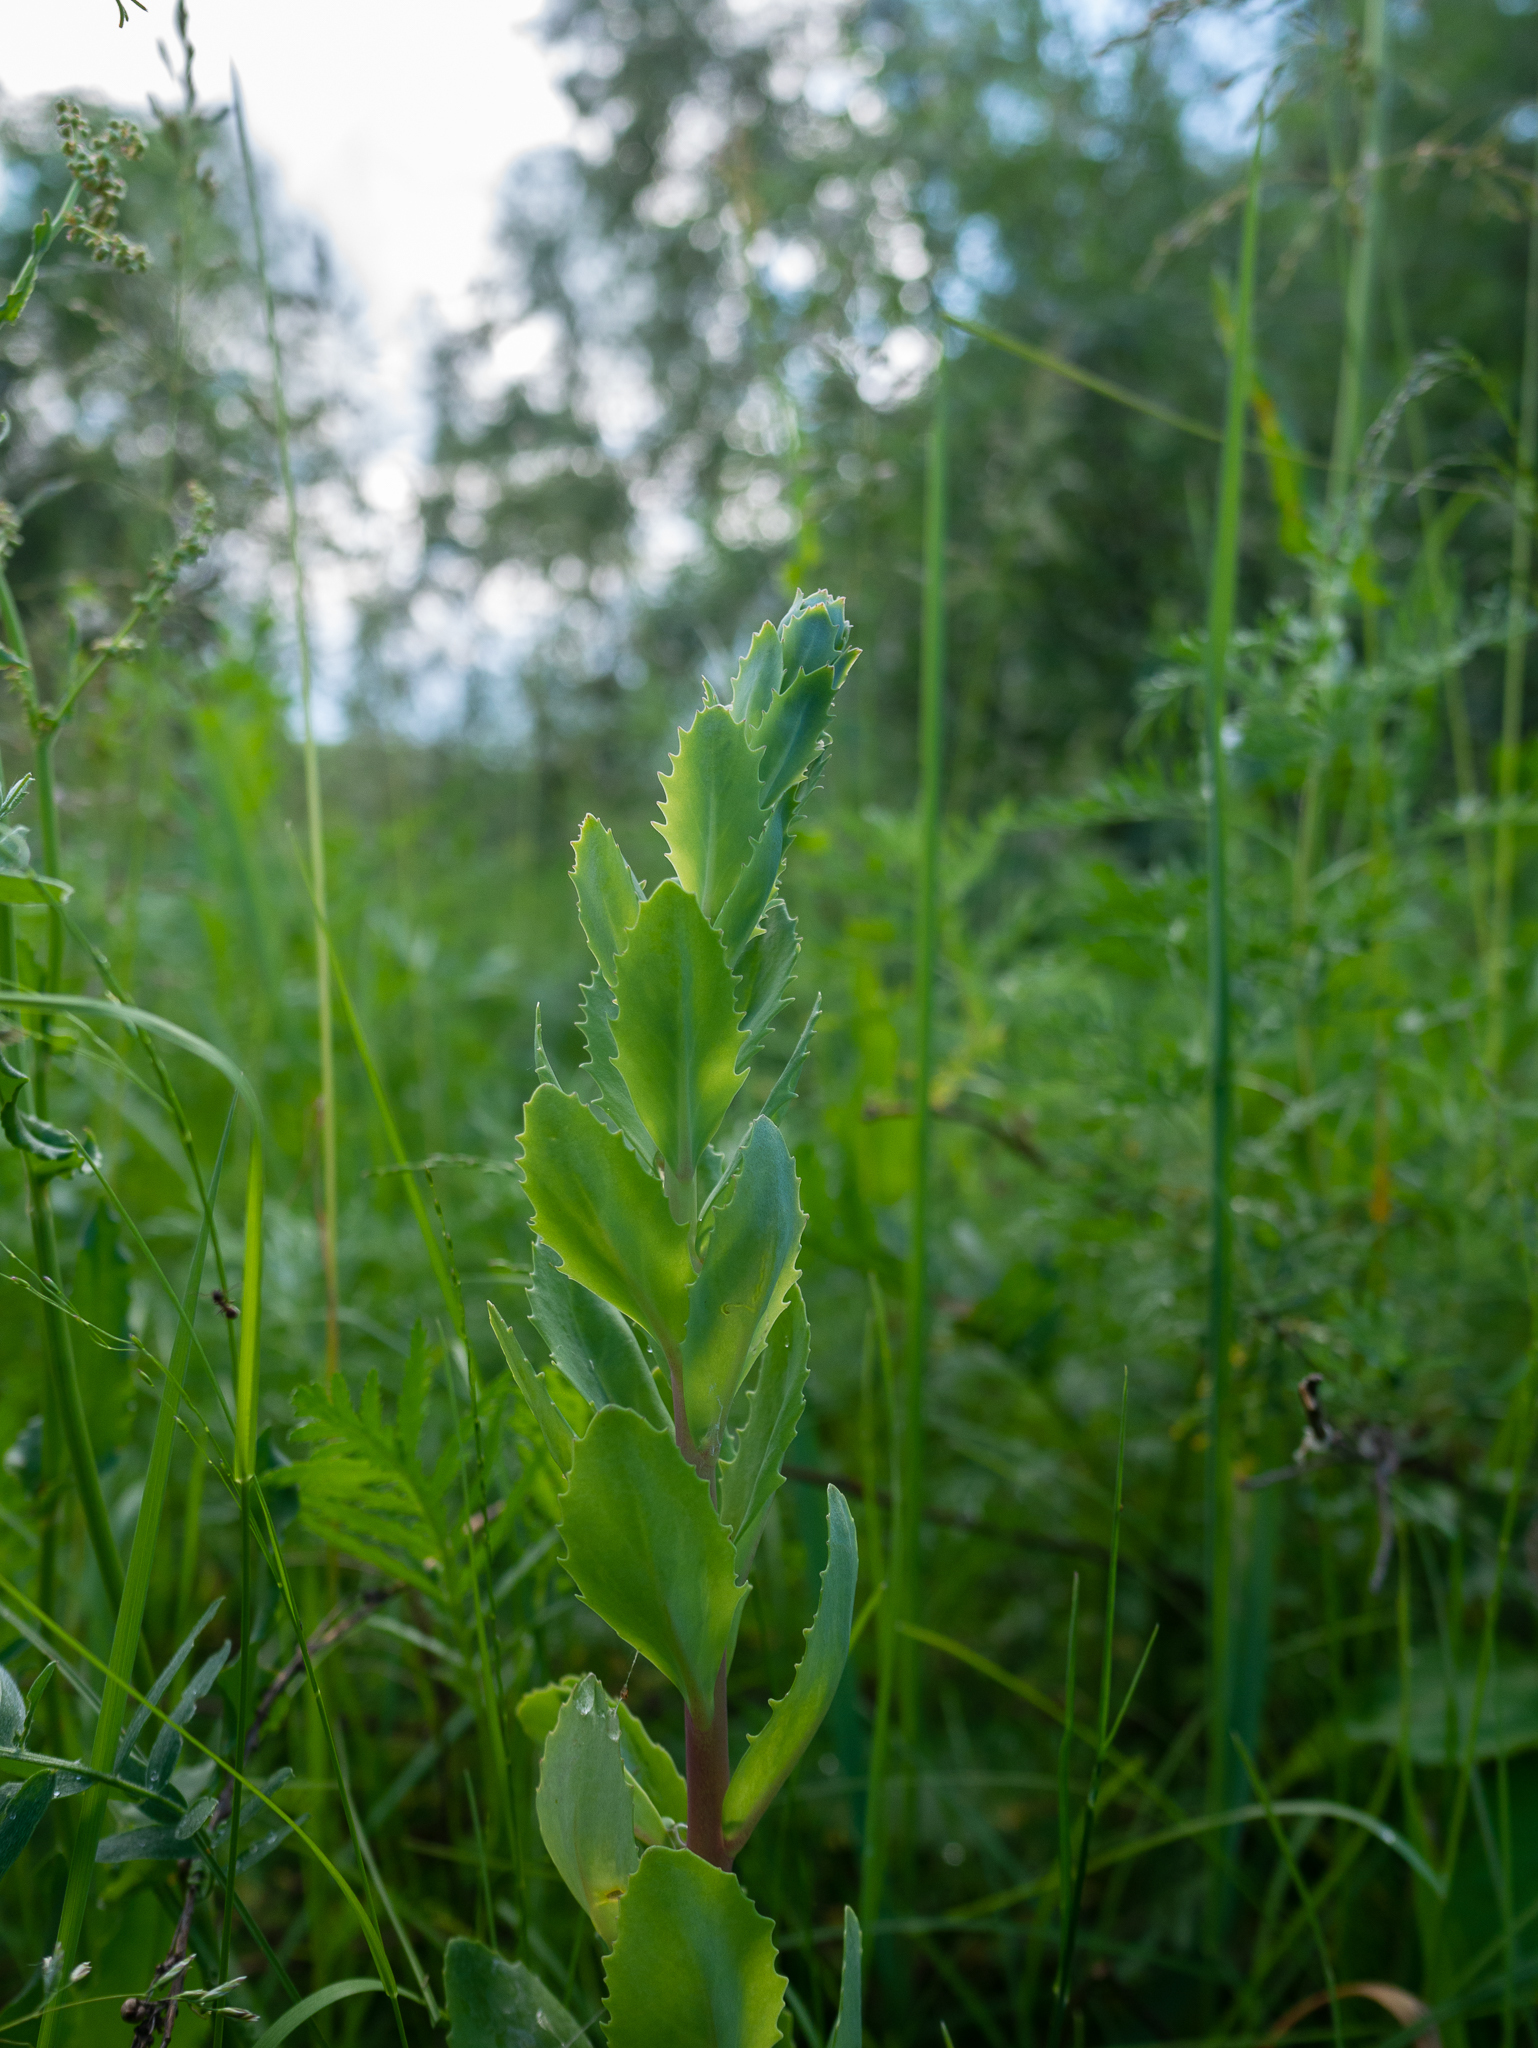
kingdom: Plantae
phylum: Tracheophyta
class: Magnoliopsida
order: Saxifragales
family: Crassulaceae
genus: Hylotelephium
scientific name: Hylotelephium telephium
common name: Live-forever
